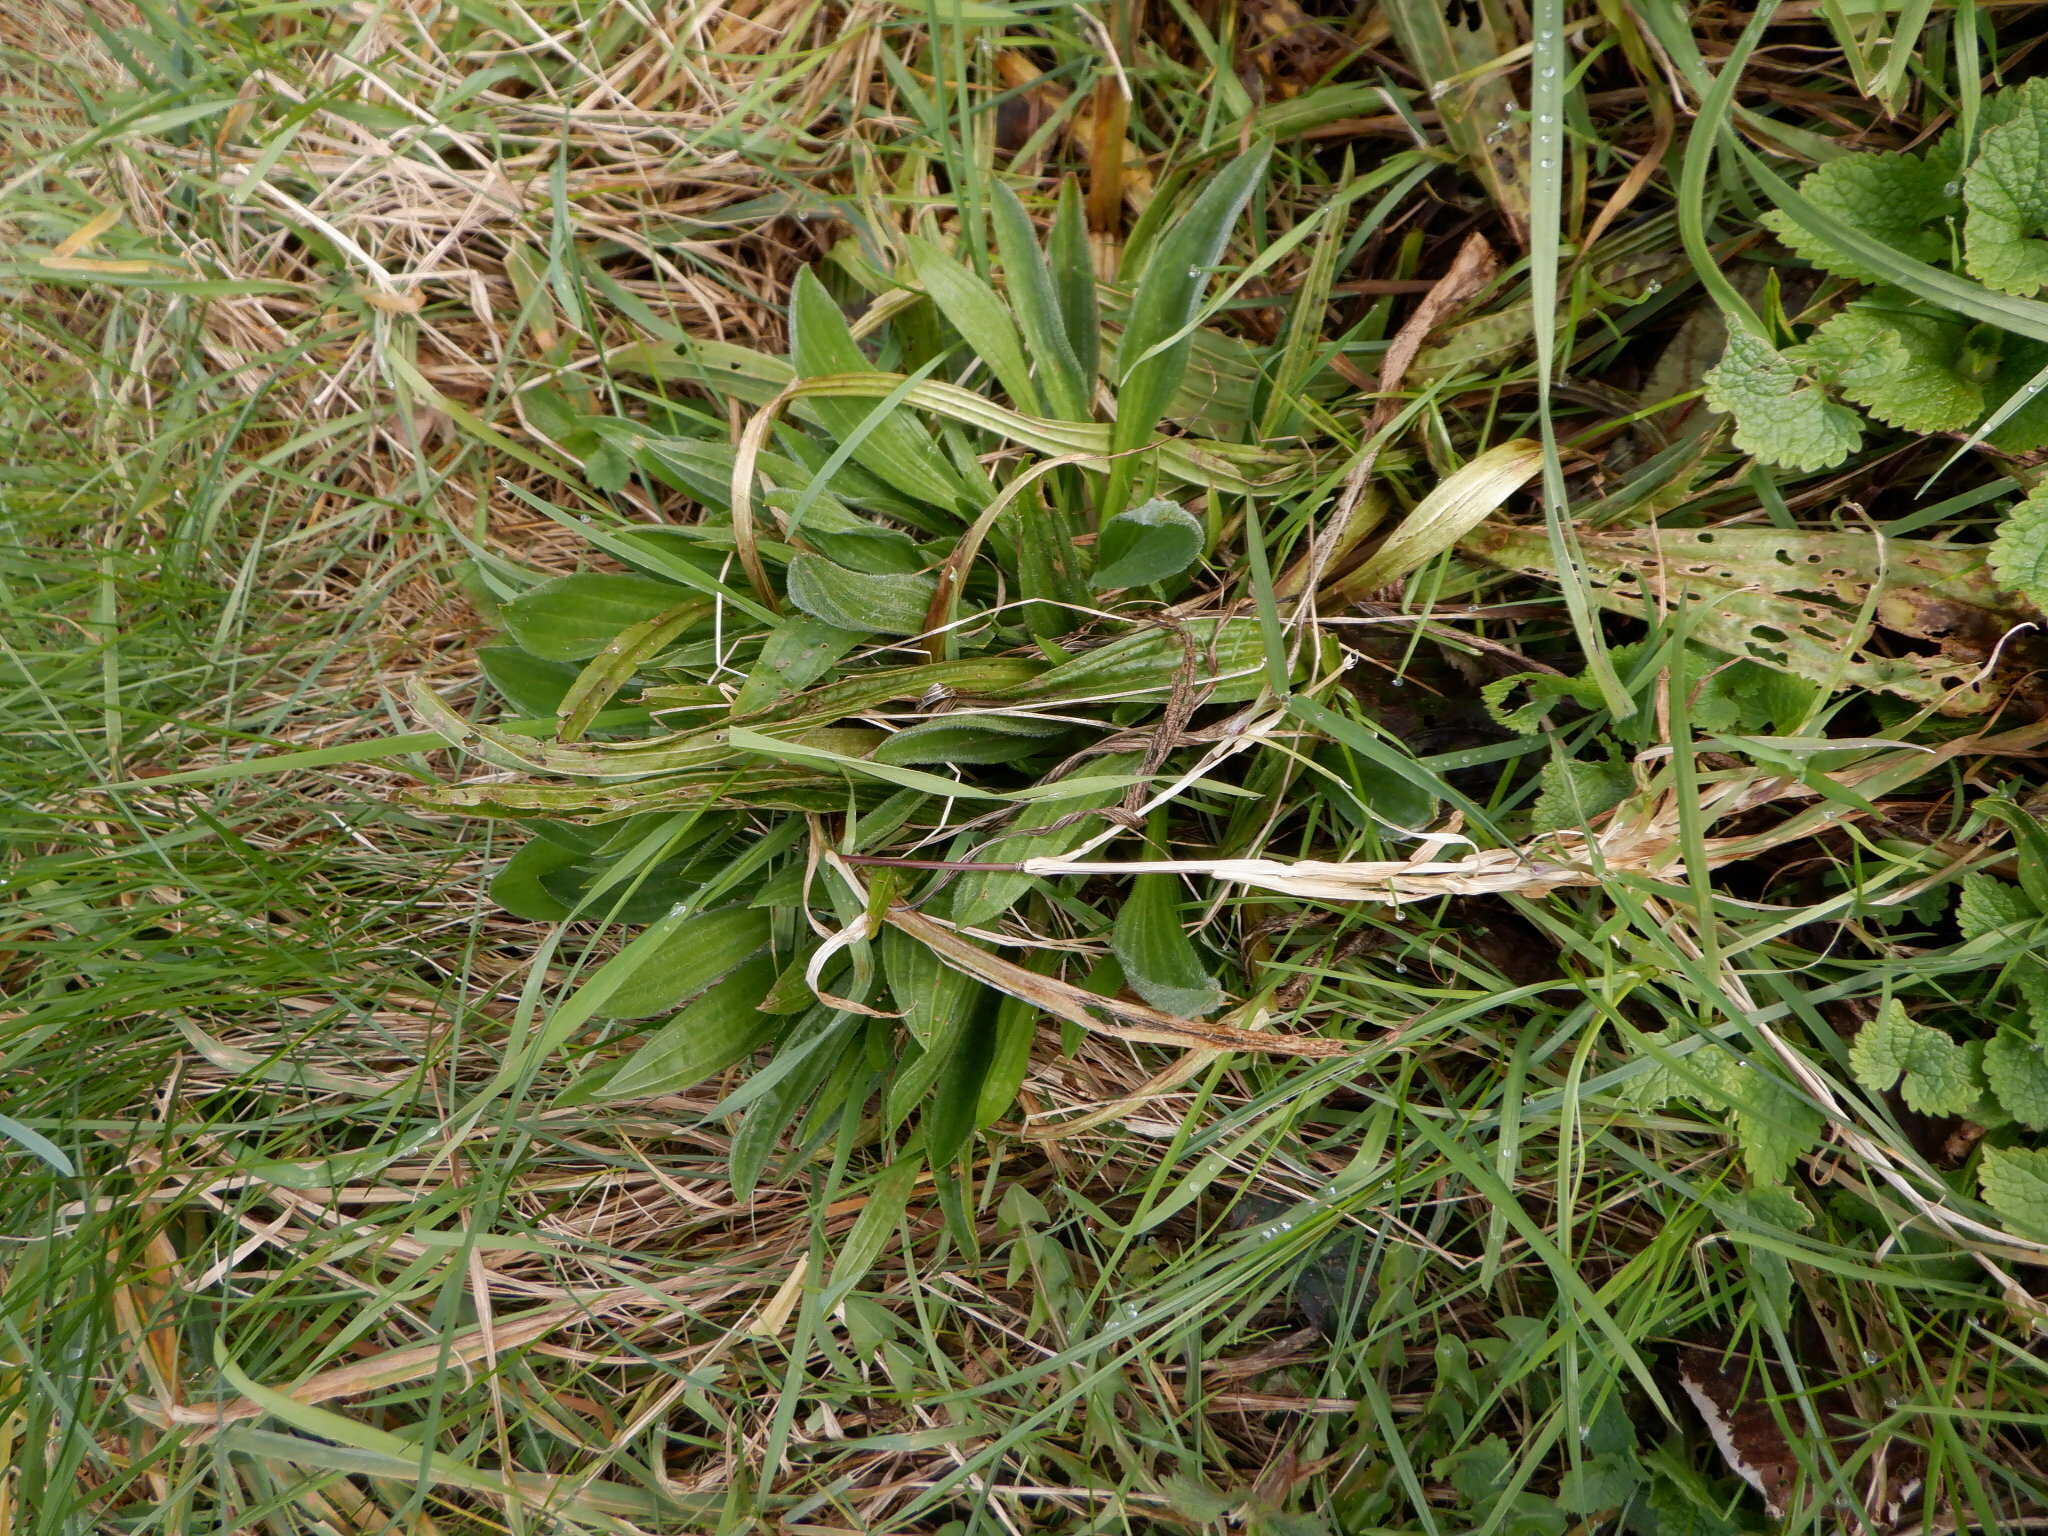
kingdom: Plantae
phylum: Tracheophyta
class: Magnoliopsida
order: Lamiales
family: Plantaginaceae
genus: Plantago
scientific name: Plantago lanceolata
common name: Ribwort plantain
